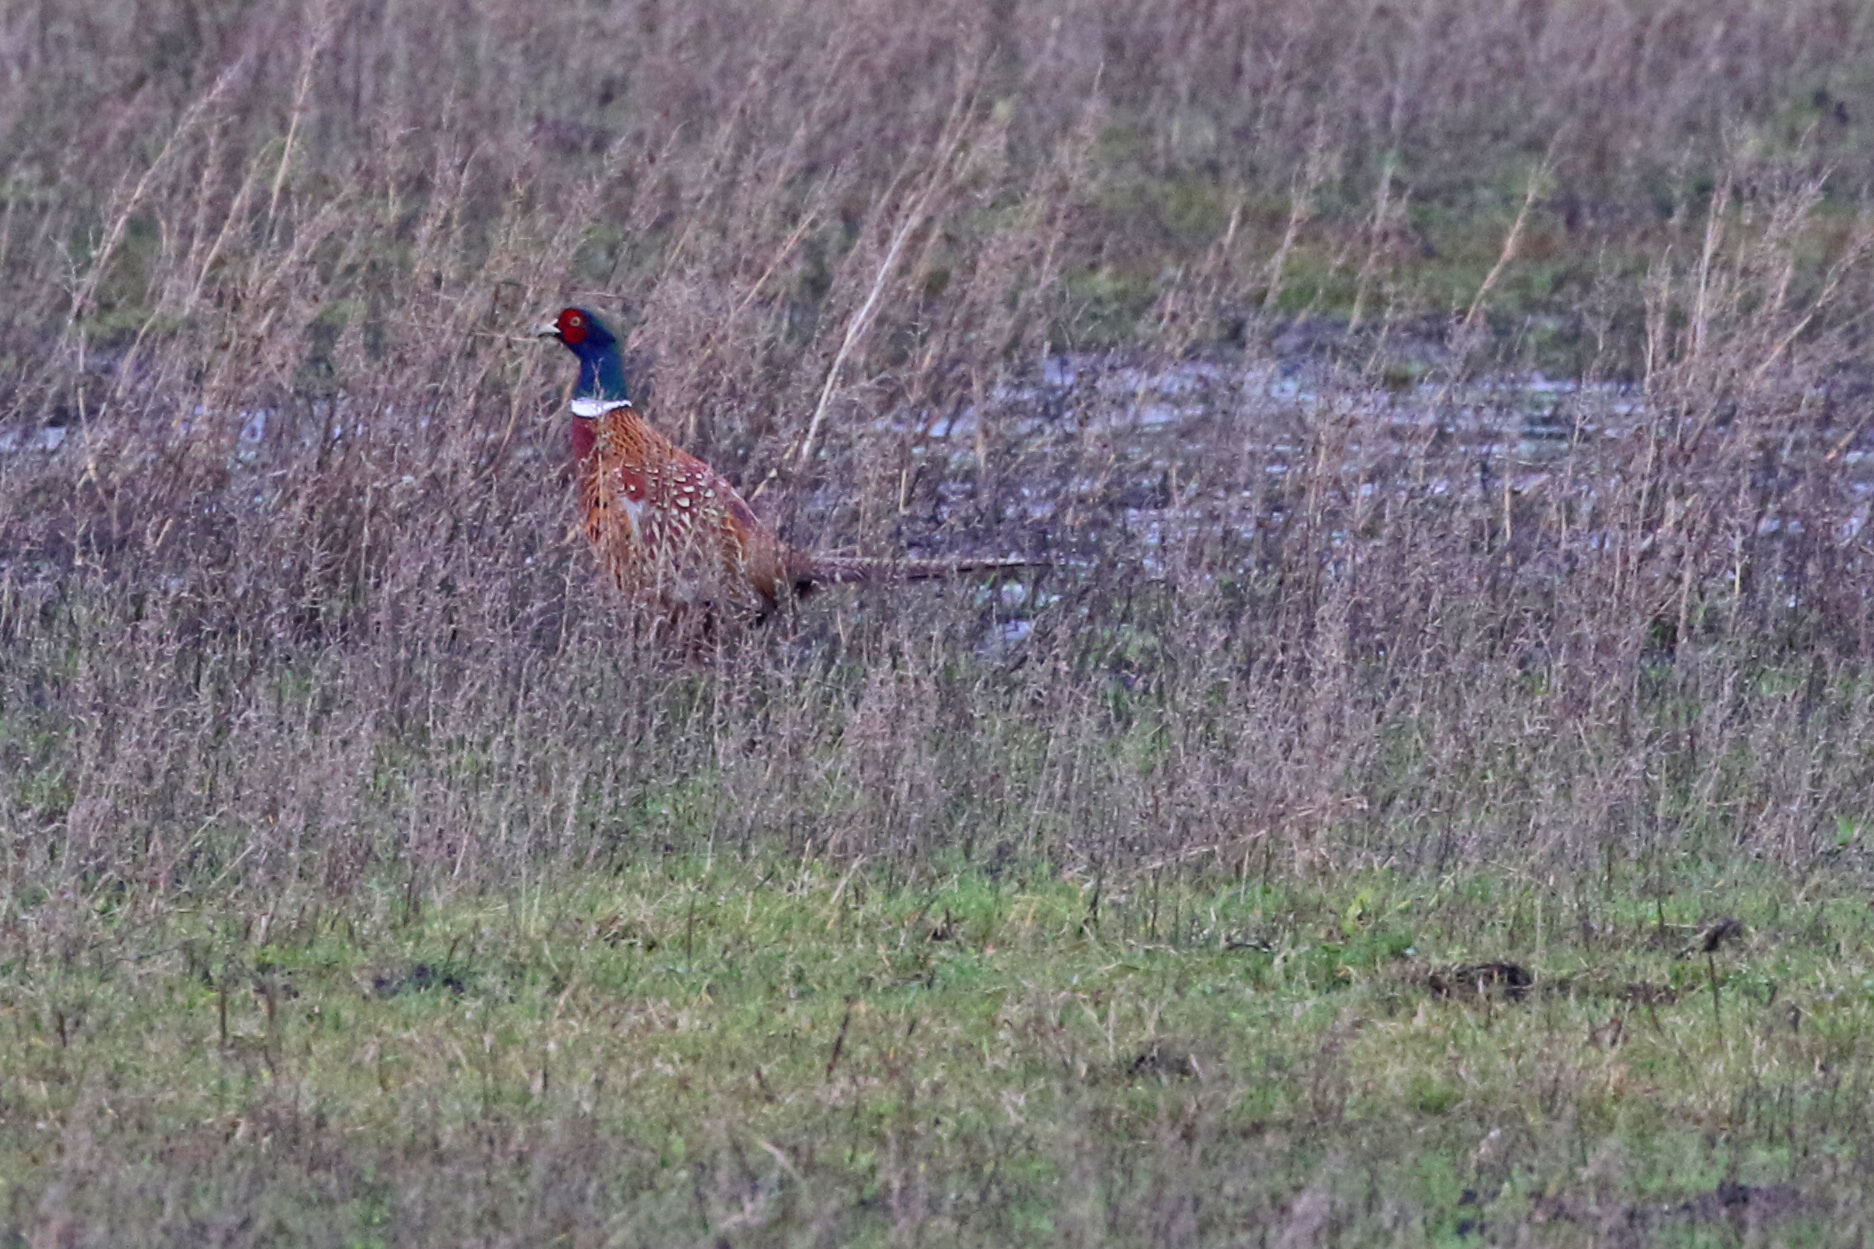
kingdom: Animalia
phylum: Chordata
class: Aves
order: Galliformes
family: Phasianidae
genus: Phasianus
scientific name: Phasianus colchicus
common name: Common pheasant
